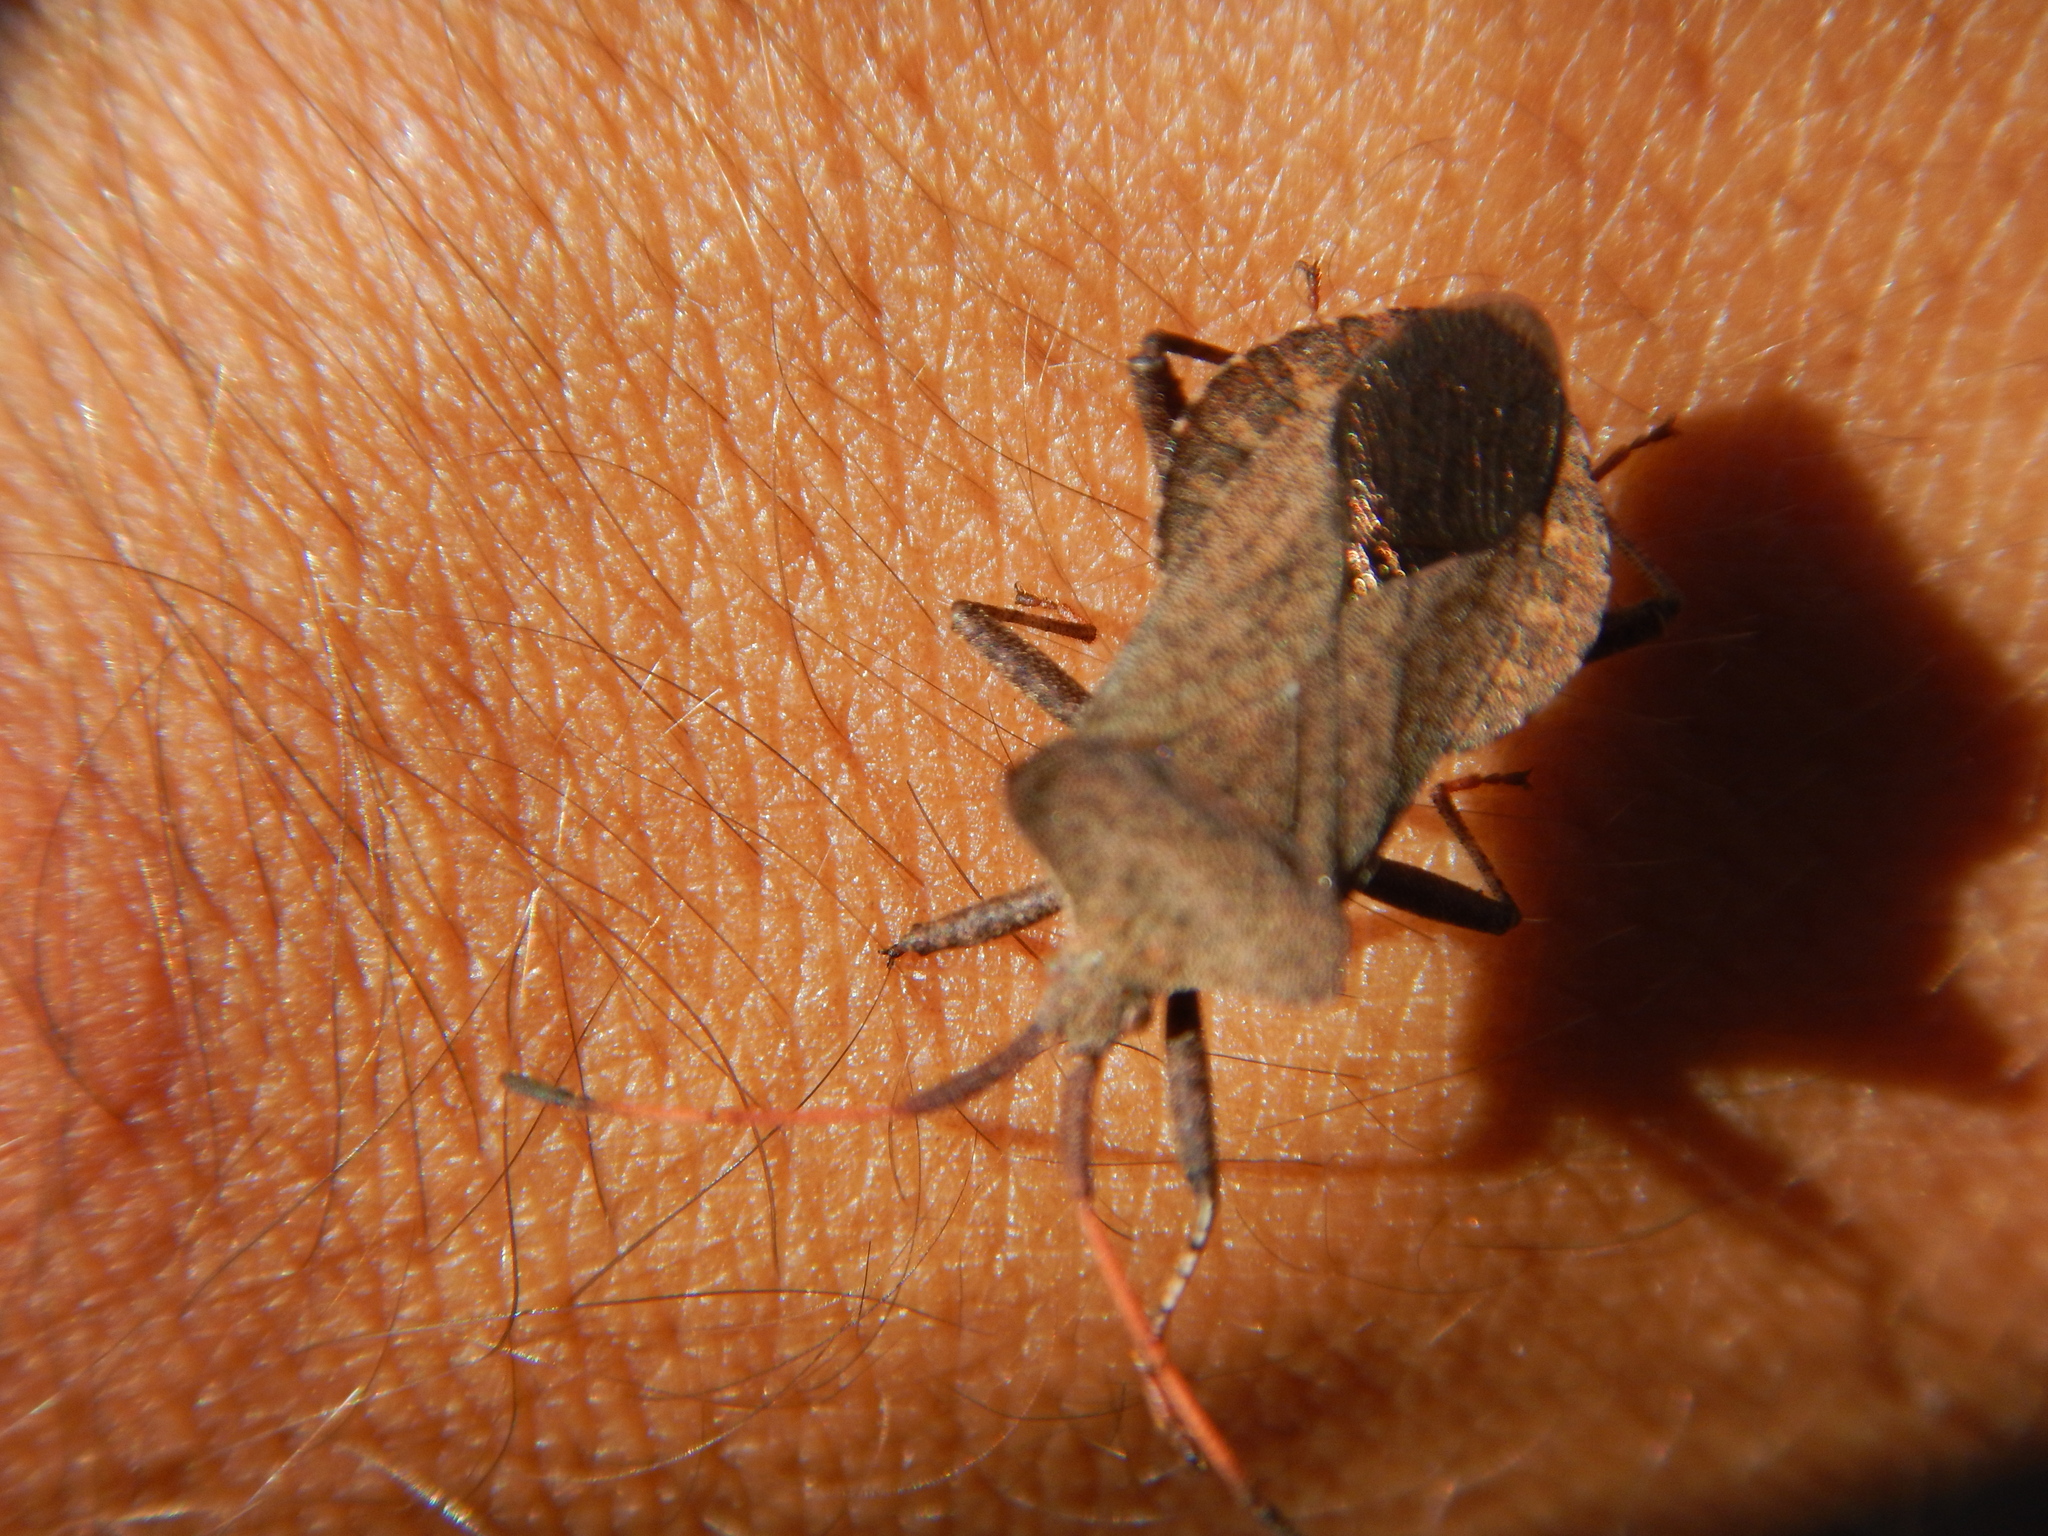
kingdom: Animalia
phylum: Arthropoda
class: Insecta
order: Hemiptera
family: Coreidae
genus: Coreus
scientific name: Coreus marginatus
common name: Dock bug
